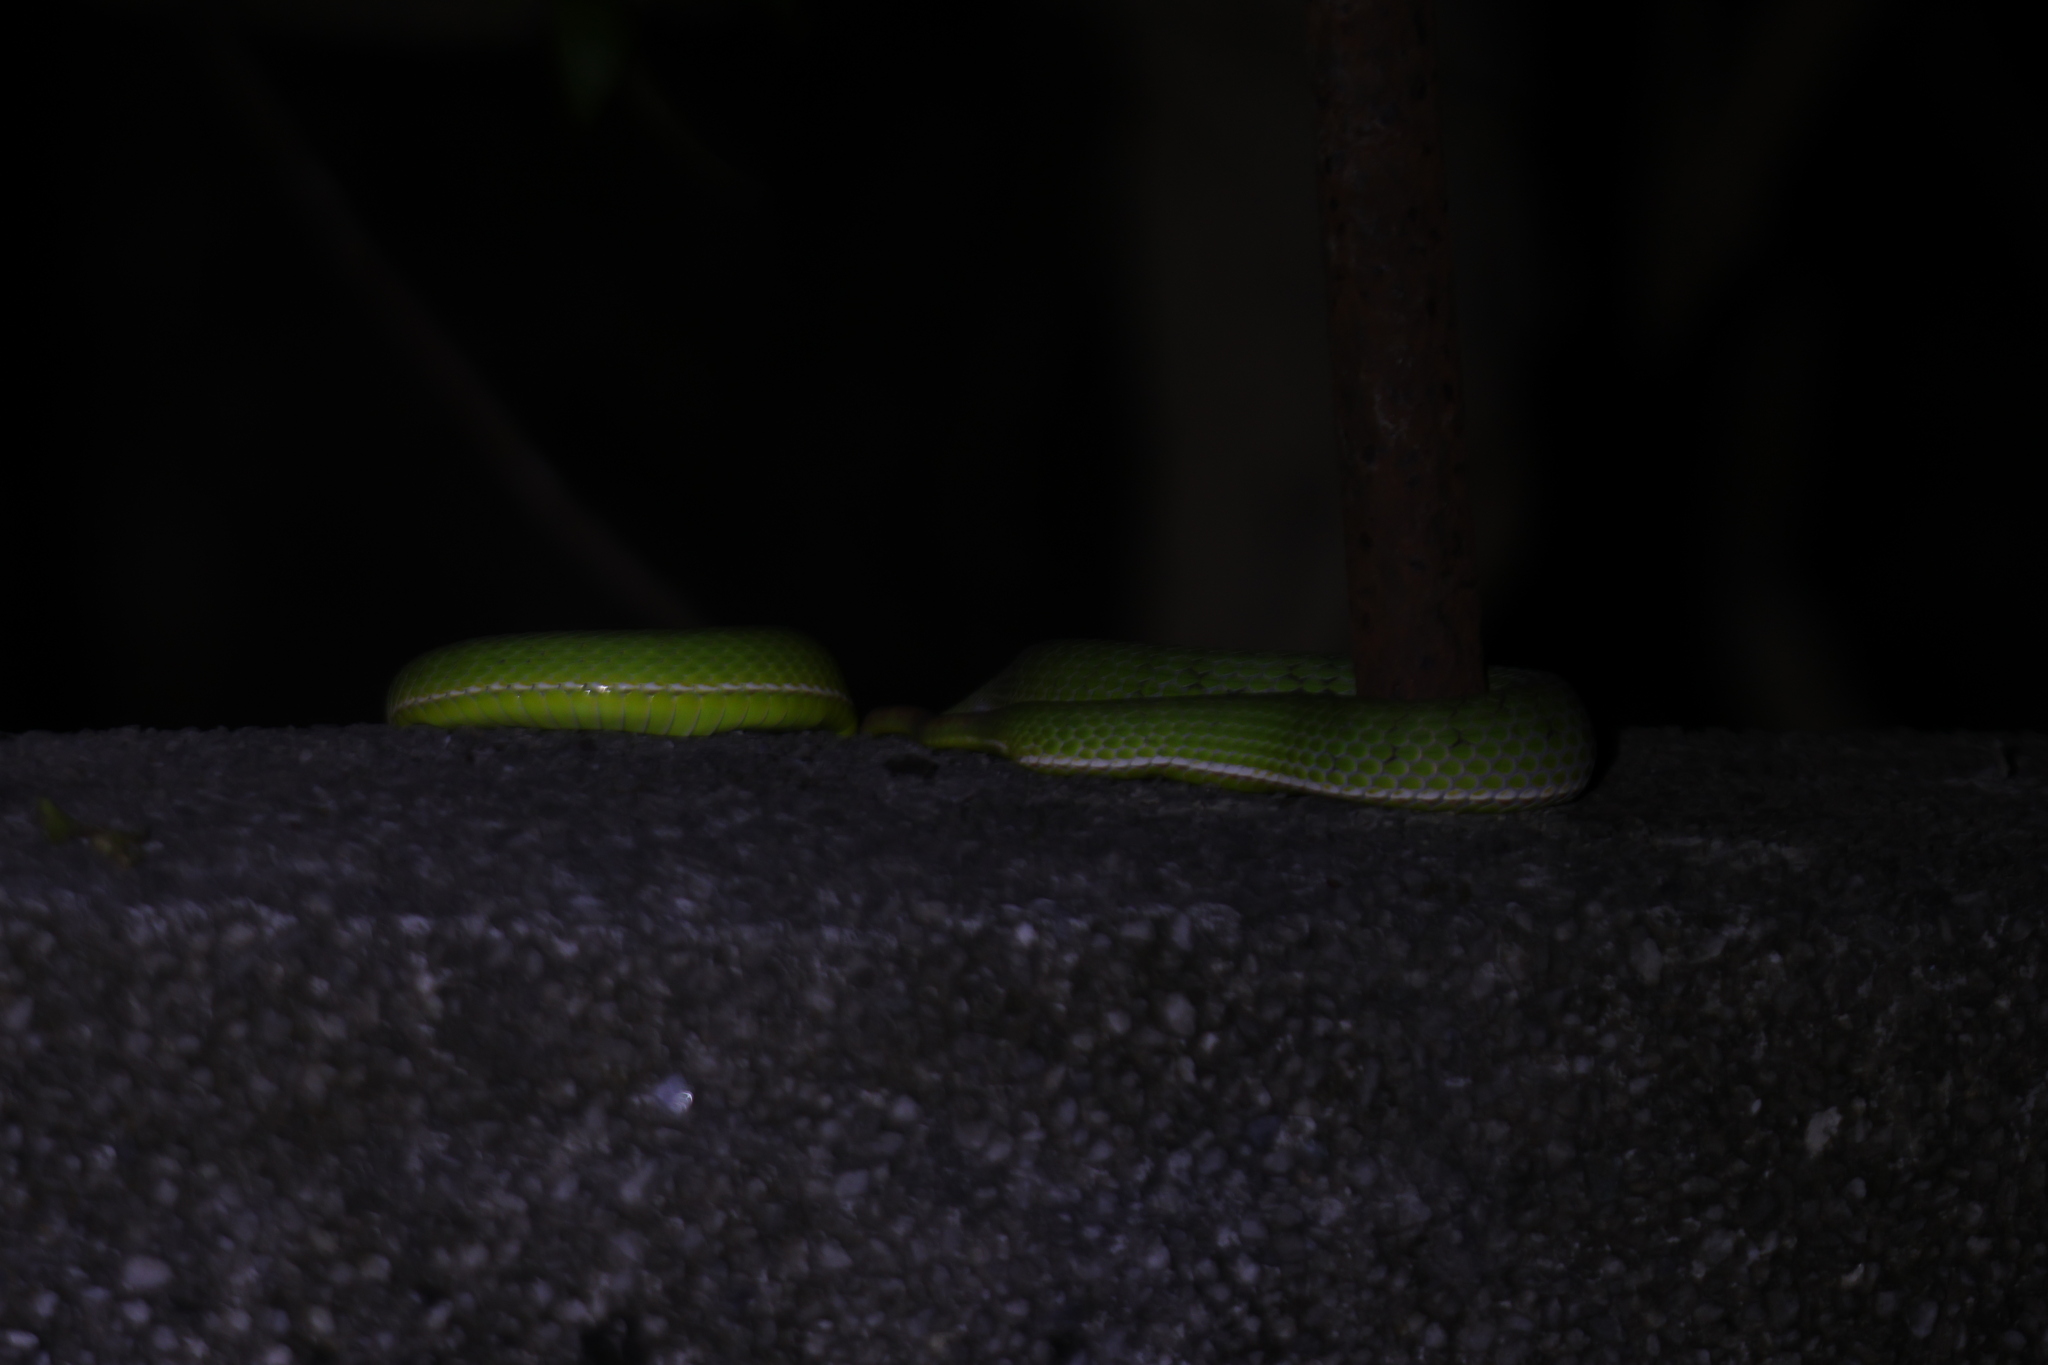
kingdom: Animalia
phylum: Chordata
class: Squamata
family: Viperidae
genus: Trimeresurus
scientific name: Trimeresurus stejnegeri
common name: Chen’s bamboo pit viper
